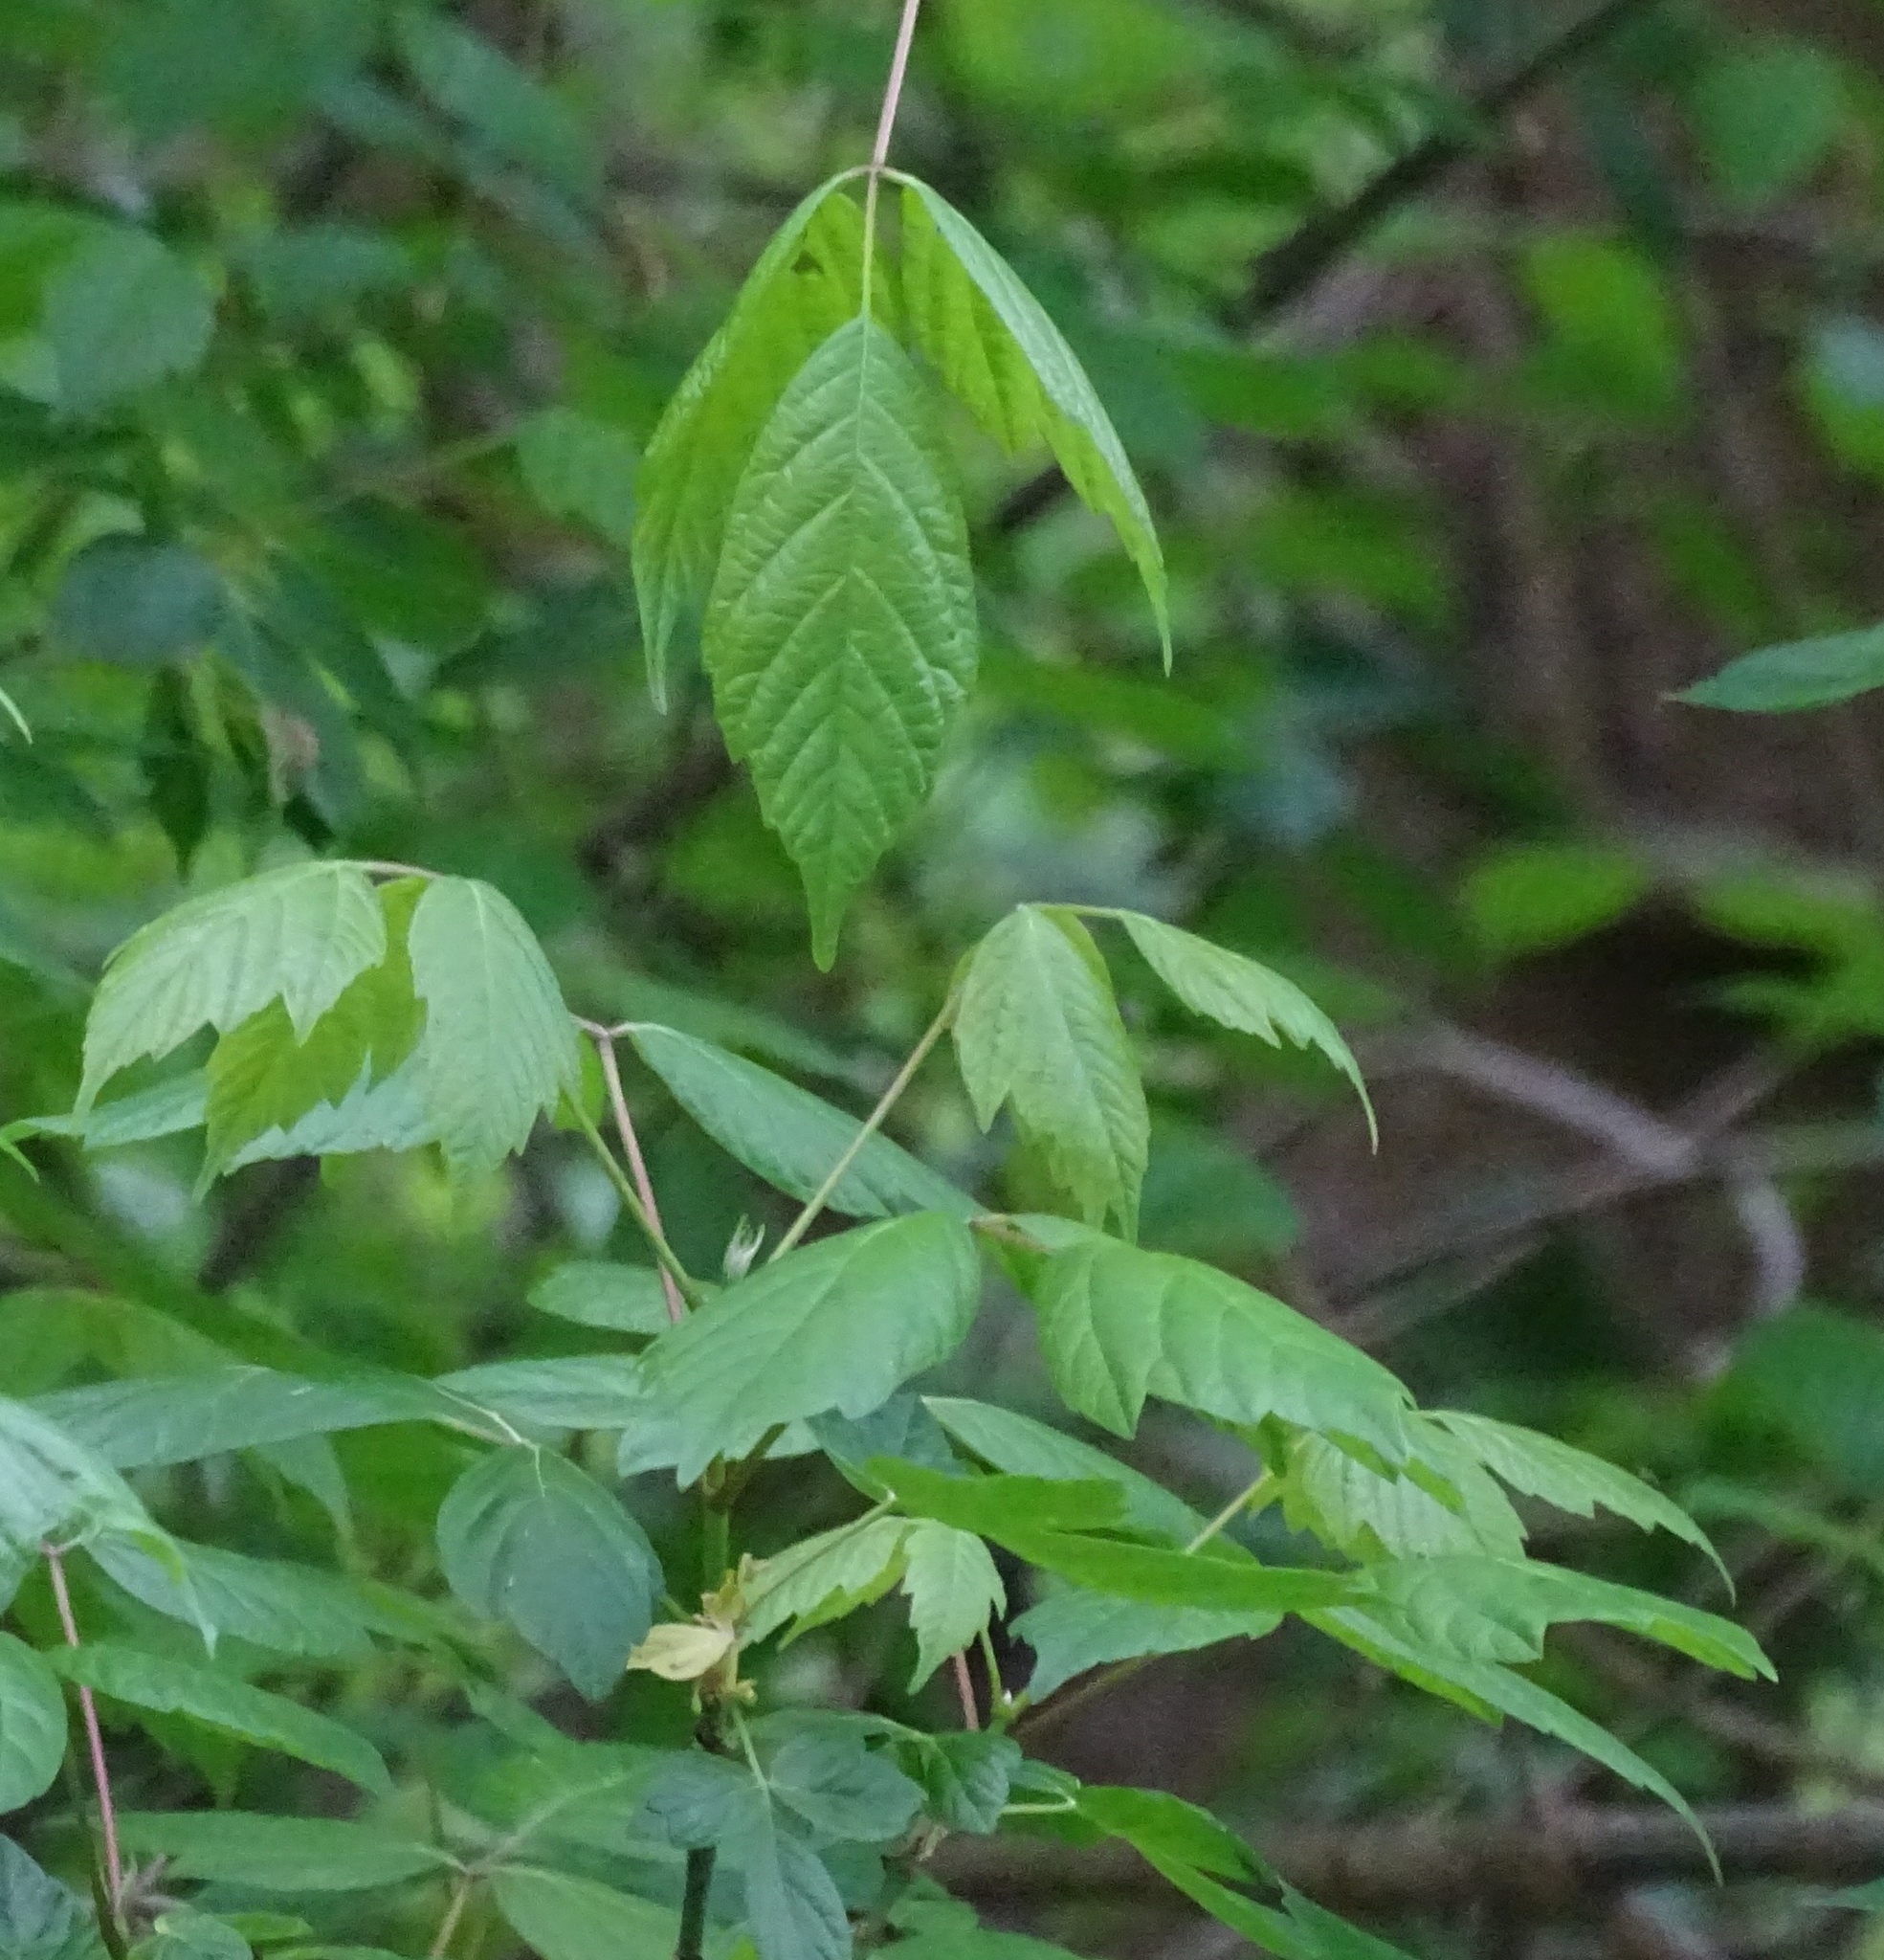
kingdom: Plantae
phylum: Tracheophyta
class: Magnoliopsida
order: Sapindales
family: Sapindaceae
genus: Acer
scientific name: Acer negundo
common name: Ashleaf maple
